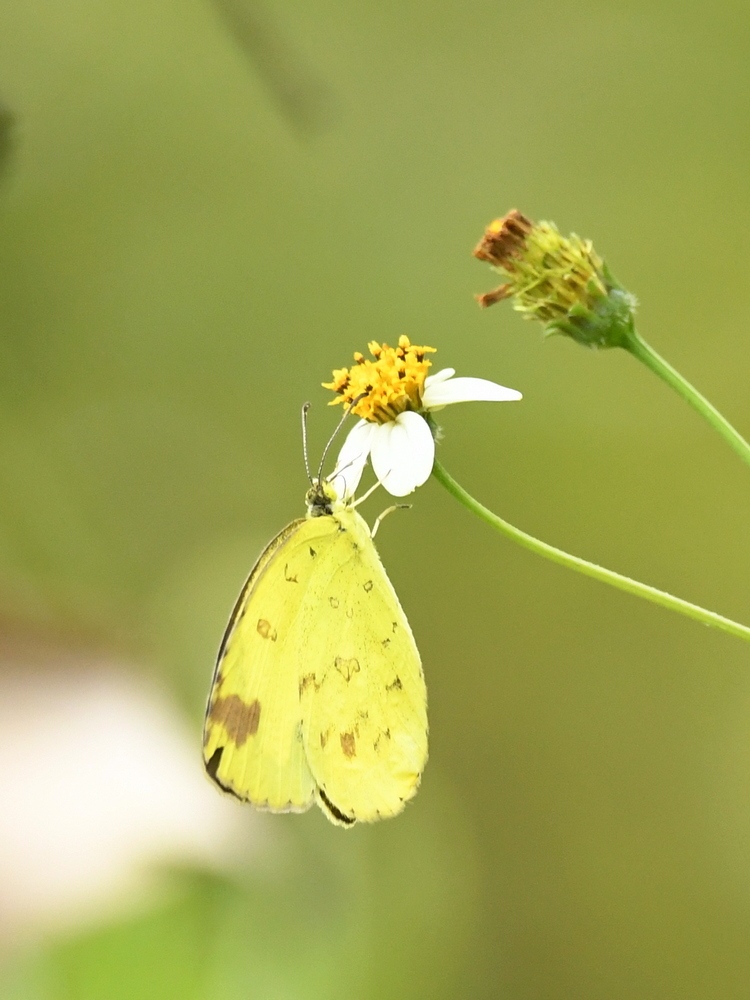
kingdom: Animalia
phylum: Arthropoda
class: Insecta
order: Lepidoptera
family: Pieridae
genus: Eurema
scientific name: Eurema hecabe
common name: Pale grass yellow
